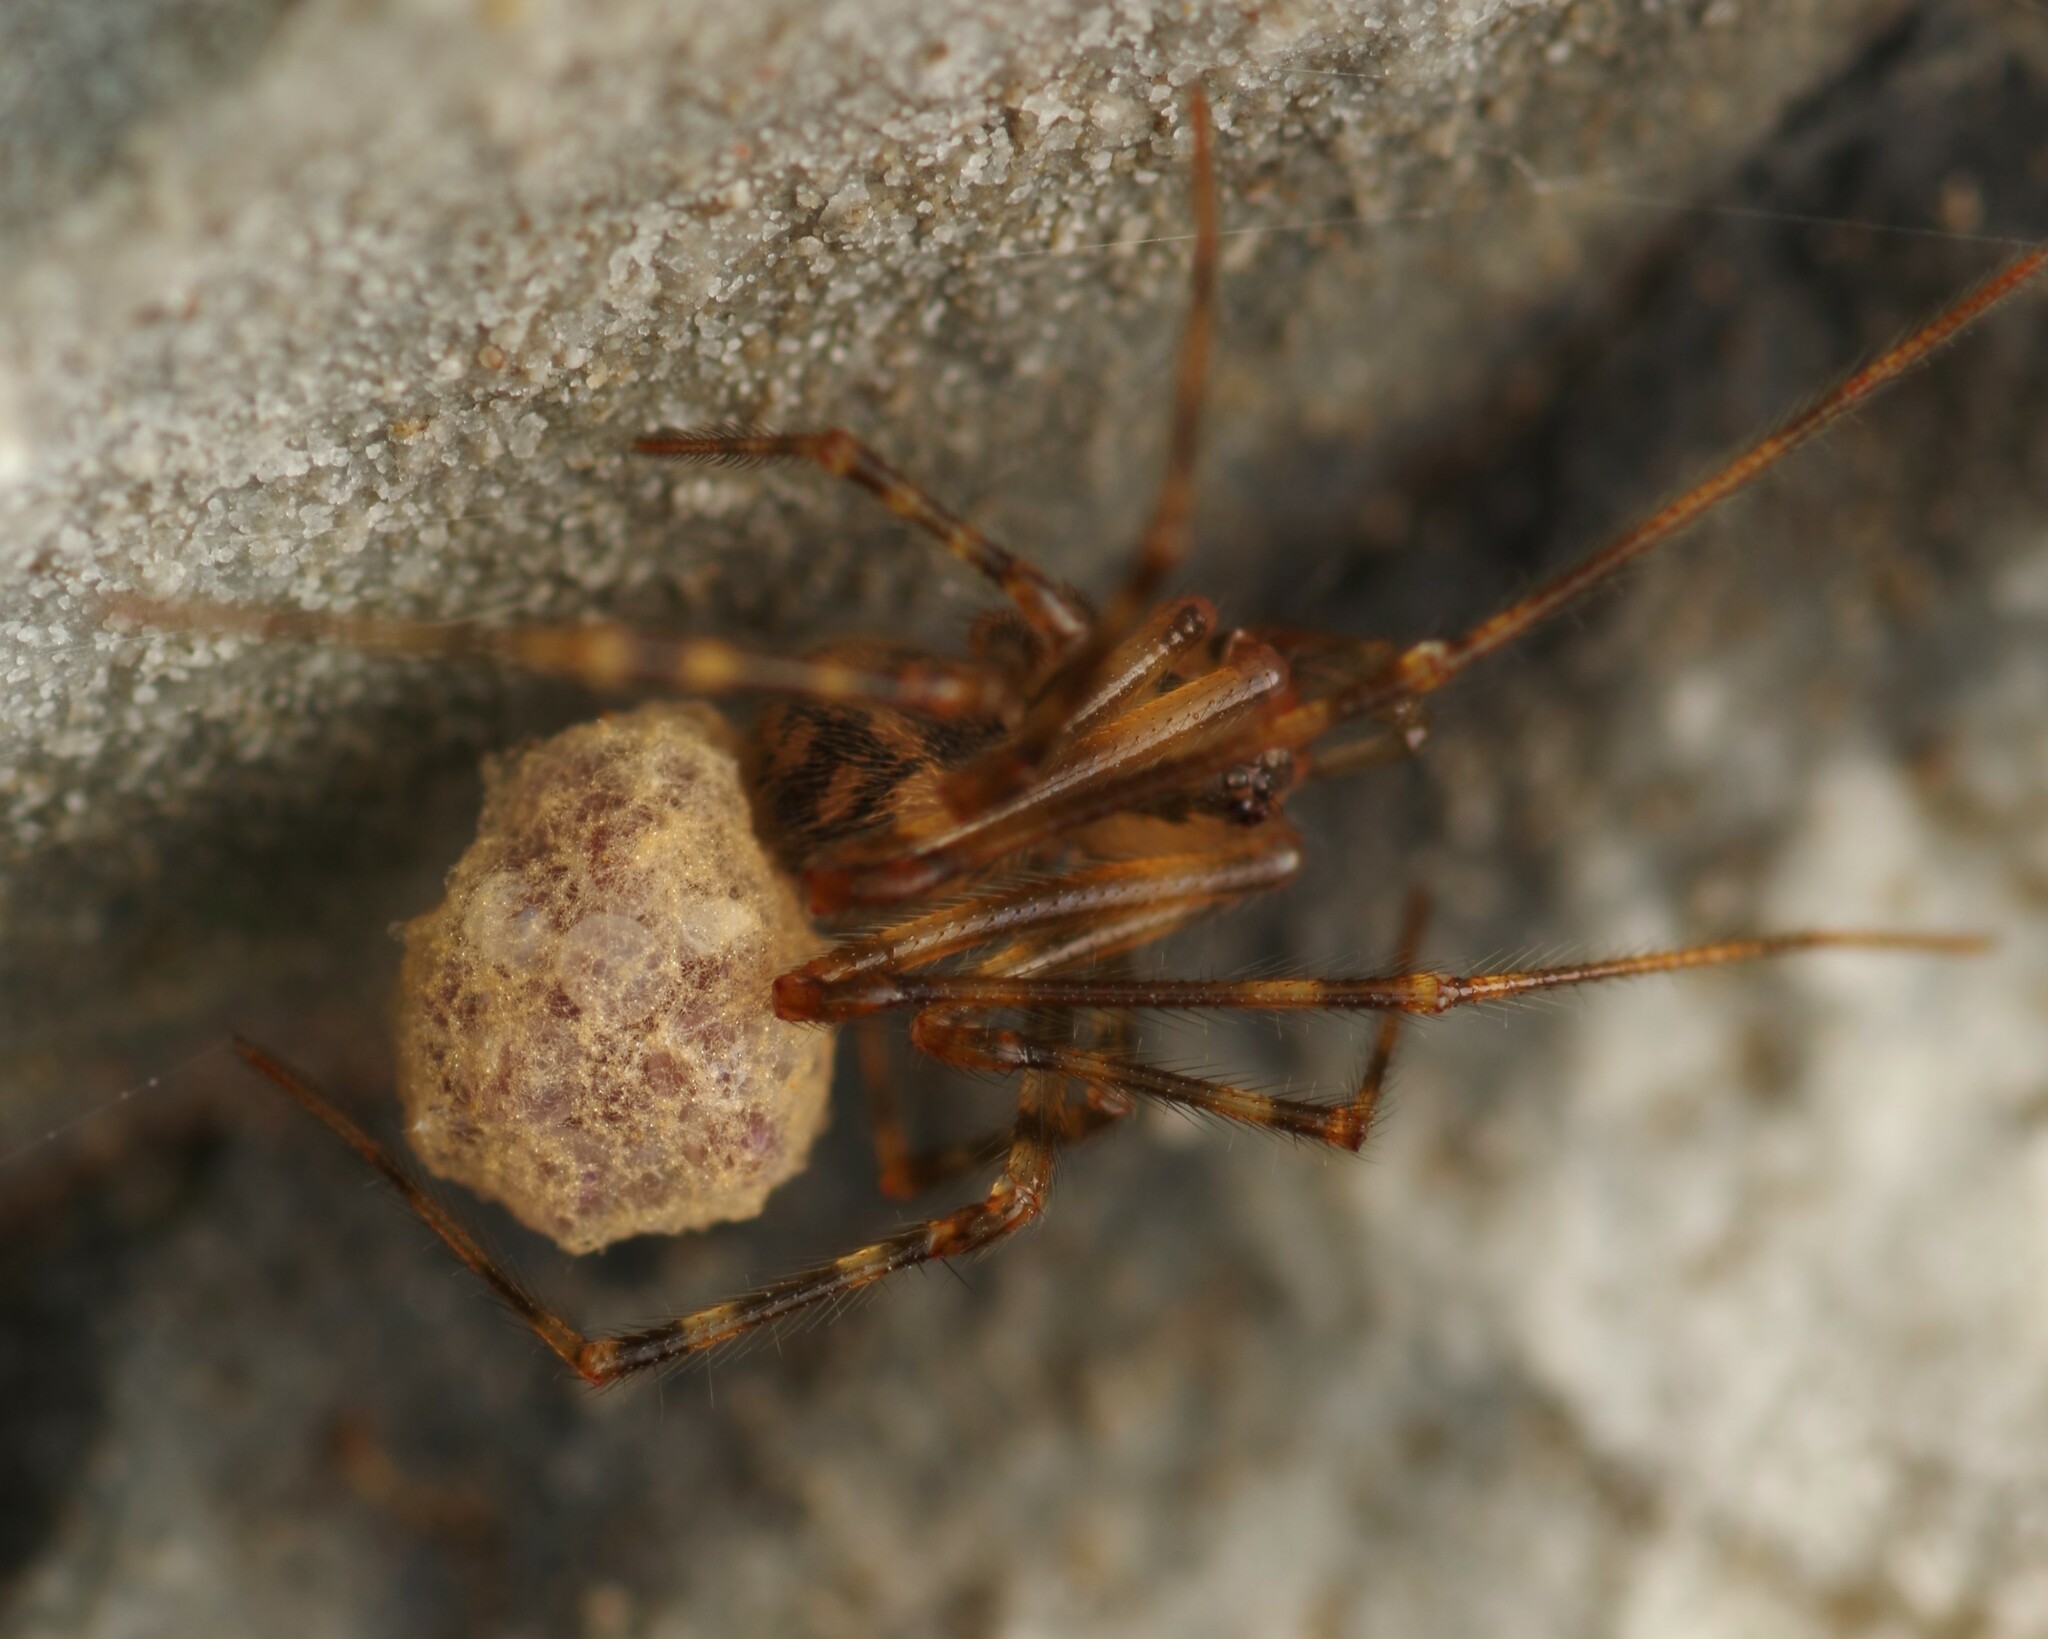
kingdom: Animalia
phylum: Arthropoda
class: Arachnida
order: Araneae
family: Nesticidae
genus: Nesticus
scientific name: Nesticus cellulanus
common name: Comb-footed cellar spider
